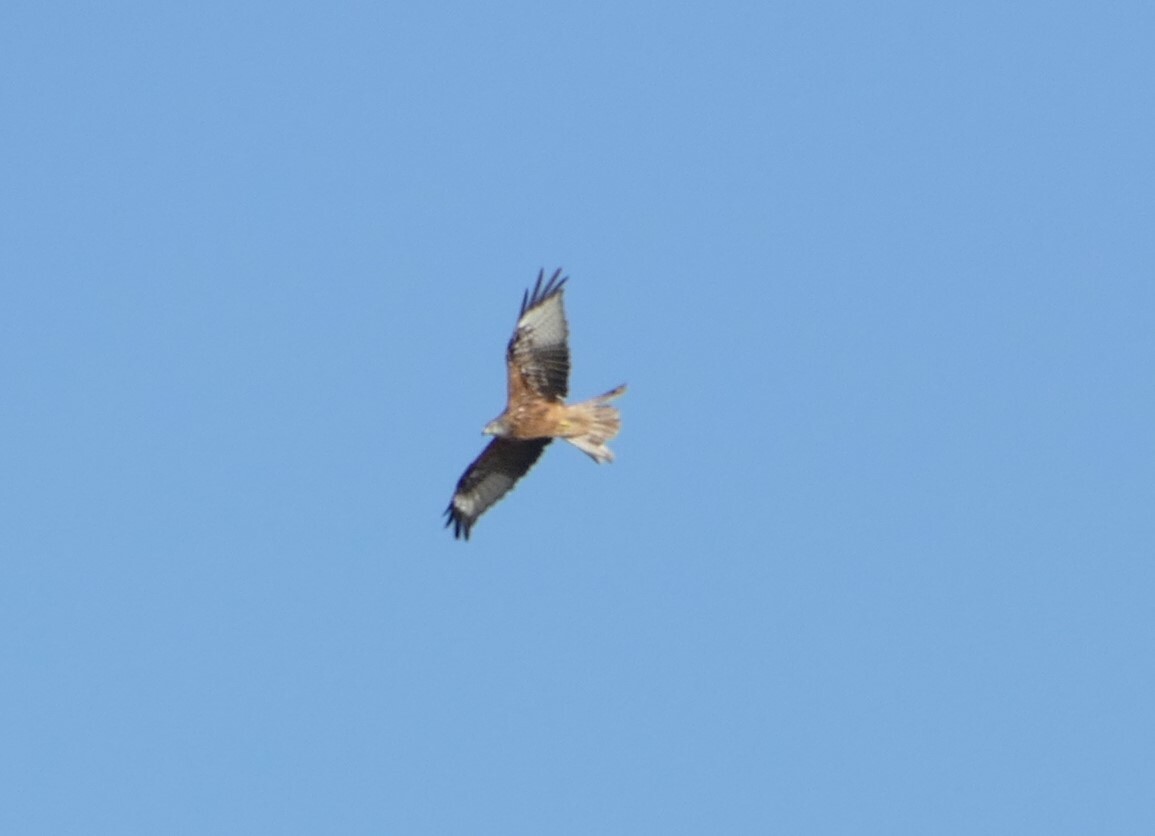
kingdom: Animalia
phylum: Chordata
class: Aves
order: Accipitriformes
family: Accipitridae
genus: Milvus
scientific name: Milvus milvus
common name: Red kite
